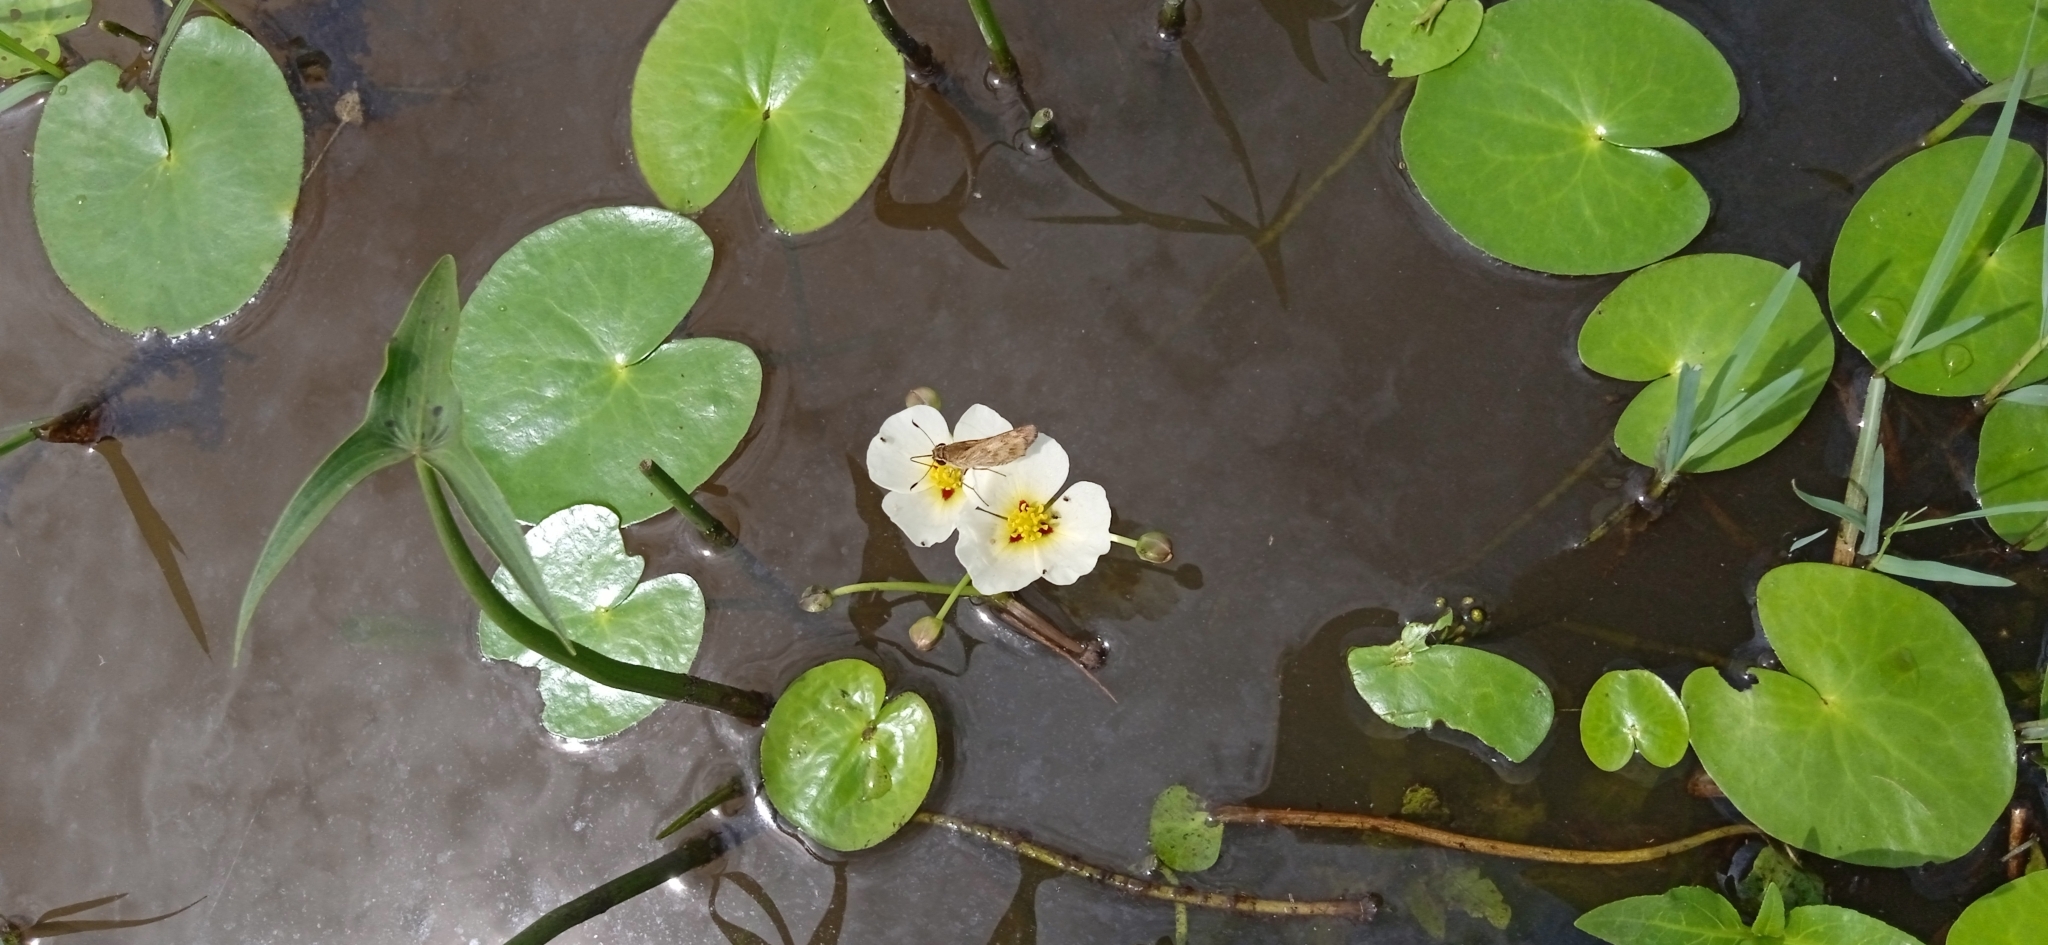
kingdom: Plantae
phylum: Tracheophyta
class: Liliopsida
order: Alismatales
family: Alismataceae
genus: Sagittaria
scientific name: Sagittaria montevidensis
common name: Giant arrowhead
